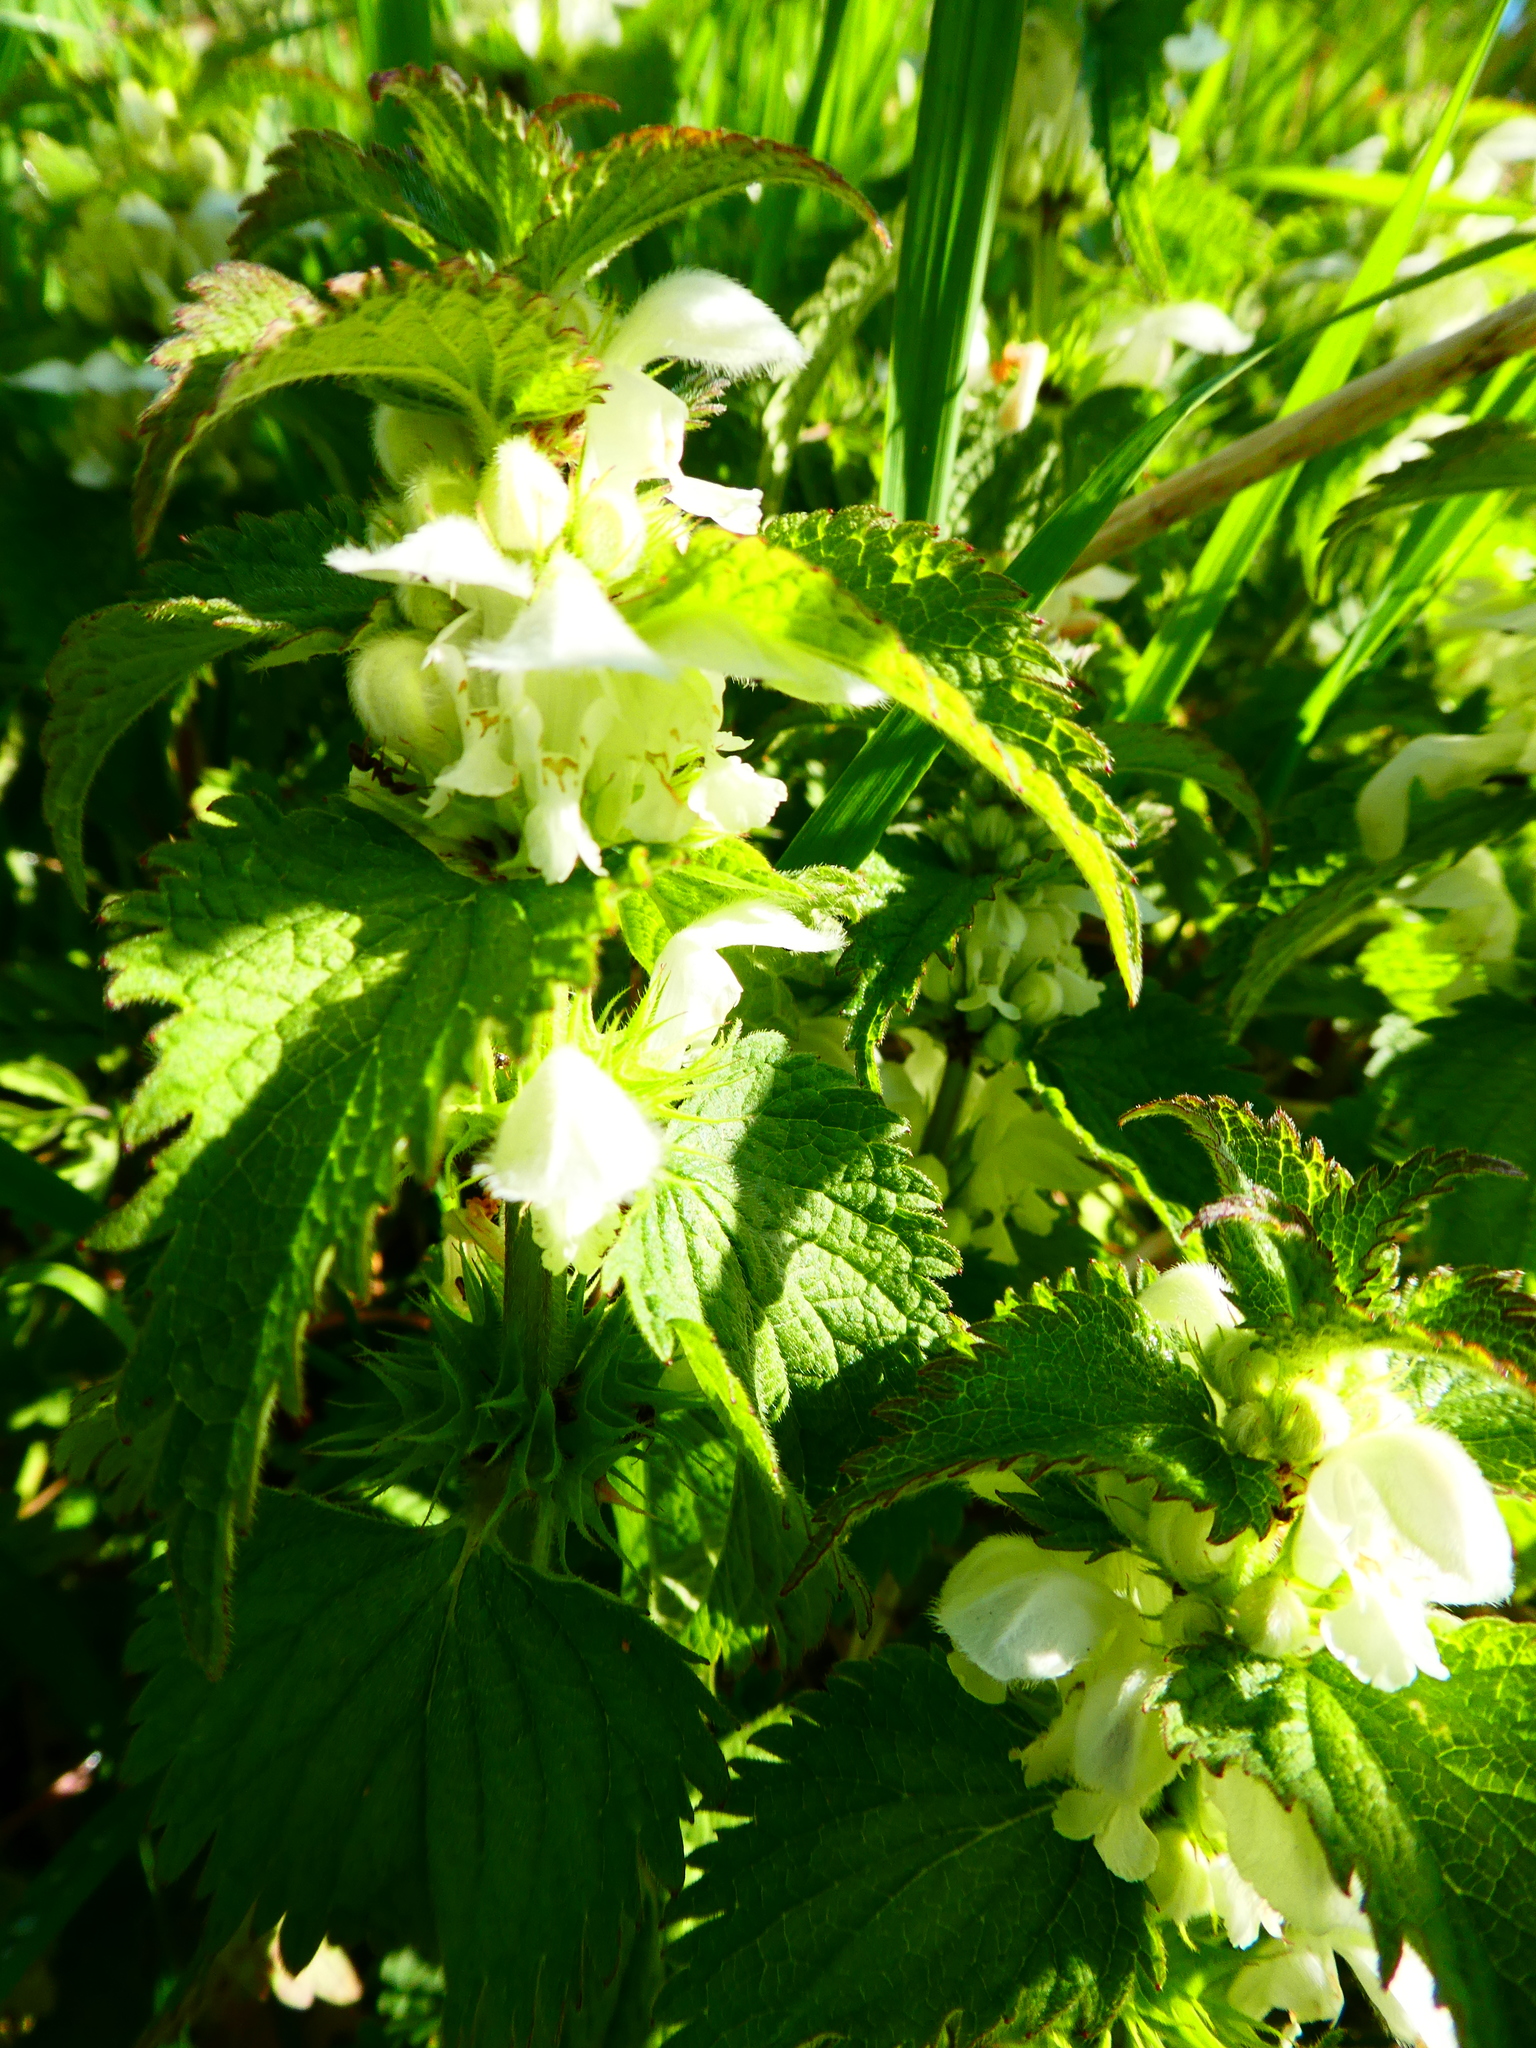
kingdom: Plantae
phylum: Tracheophyta
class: Magnoliopsida
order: Lamiales
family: Lamiaceae
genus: Lamium
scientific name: Lamium album
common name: White dead-nettle
